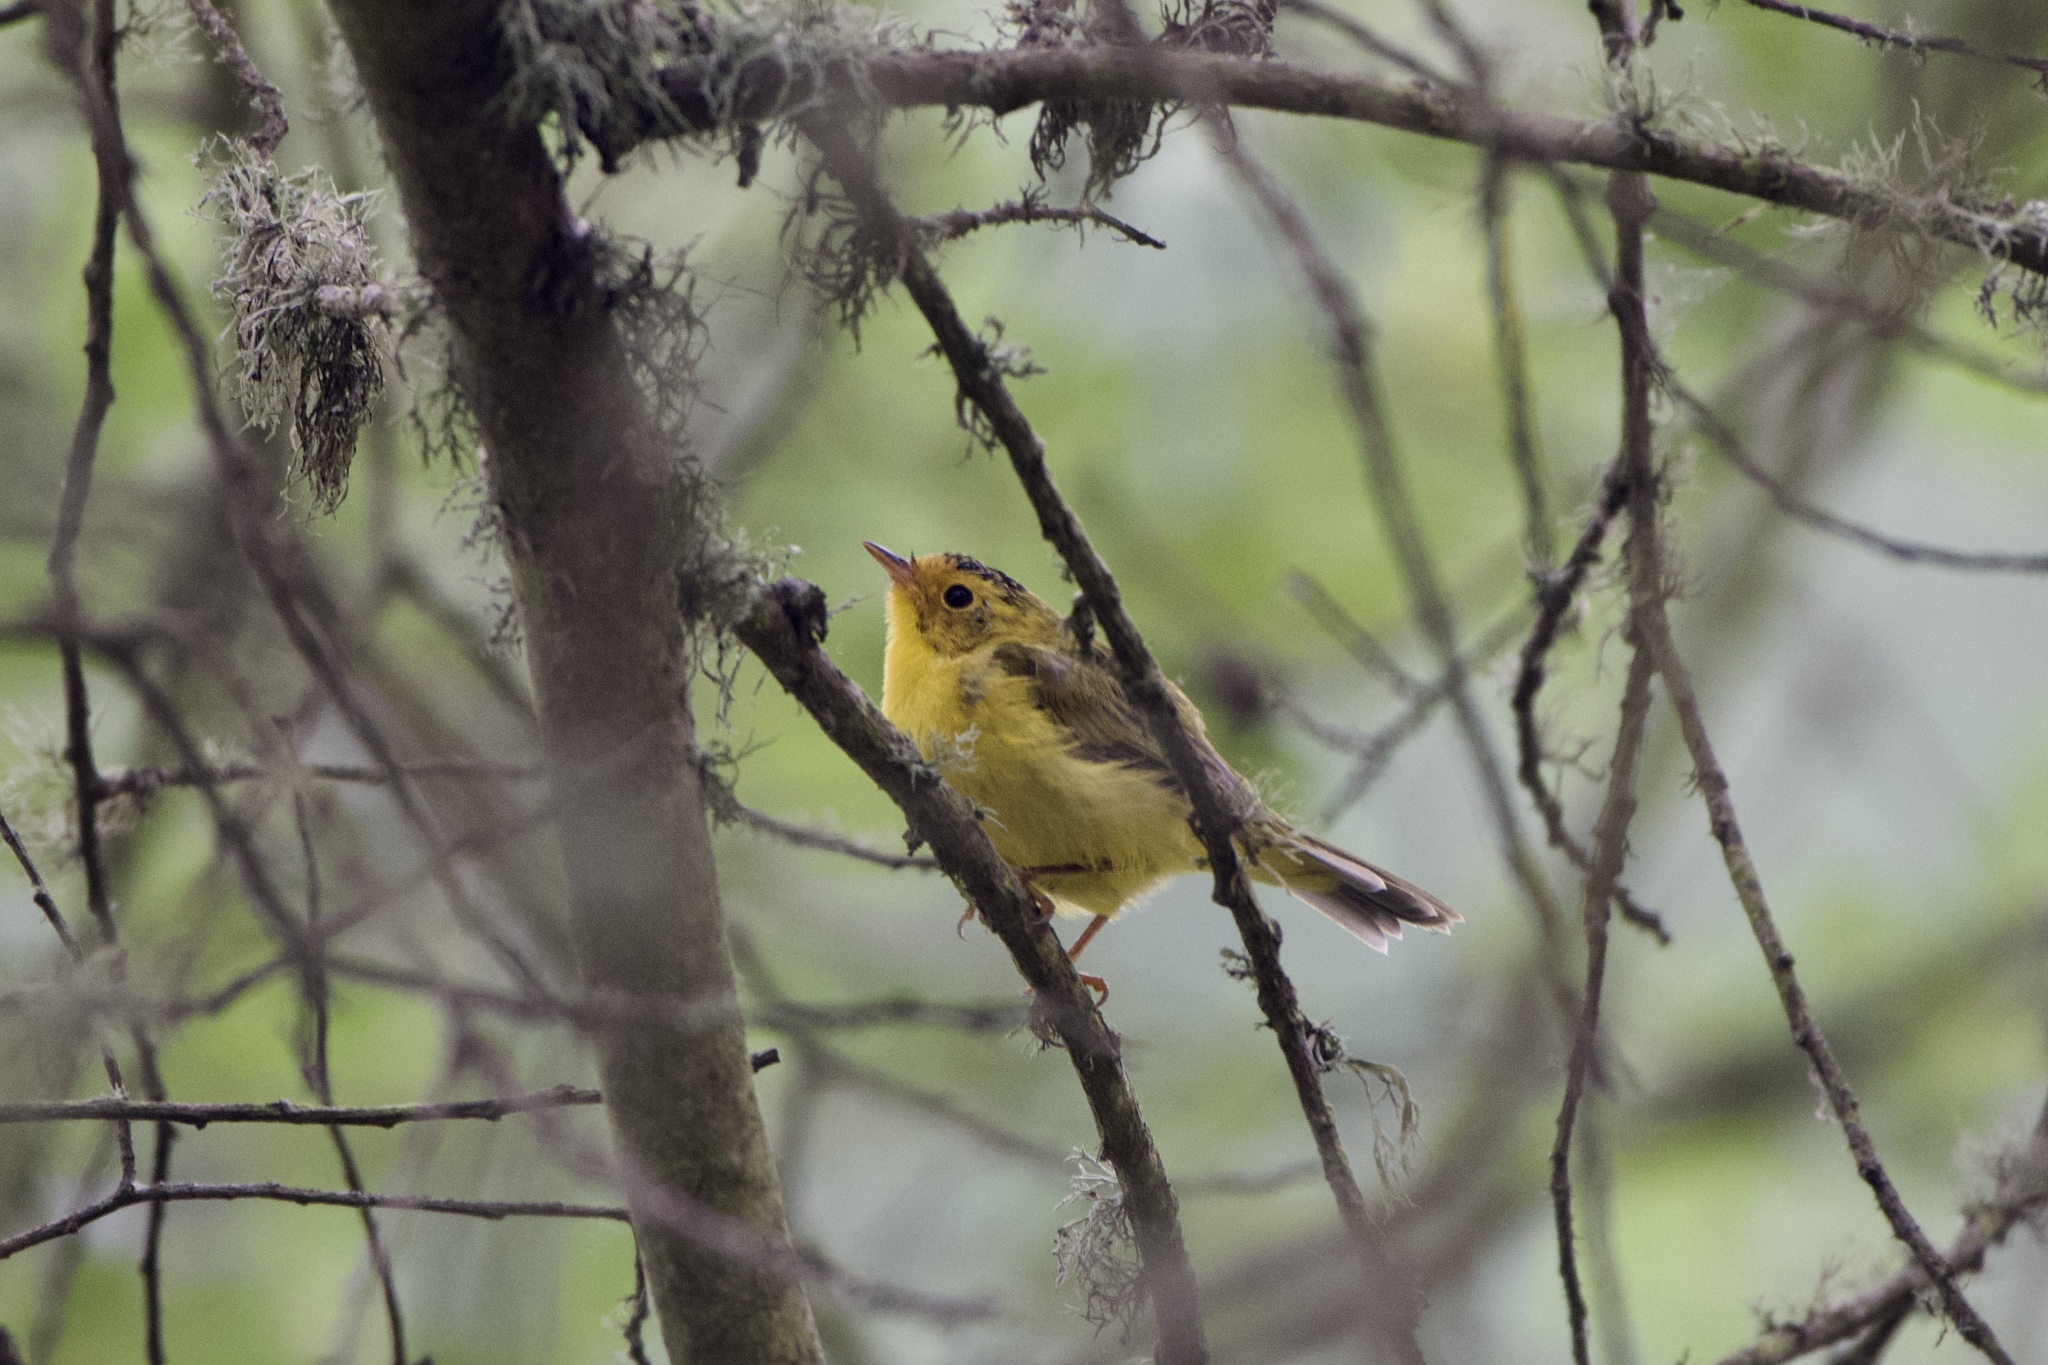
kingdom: Animalia
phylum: Chordata
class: Aves
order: Passeriformes
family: Parulidae
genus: Cardellina
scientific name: Cardellina pusilla
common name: Wilson's warbler
